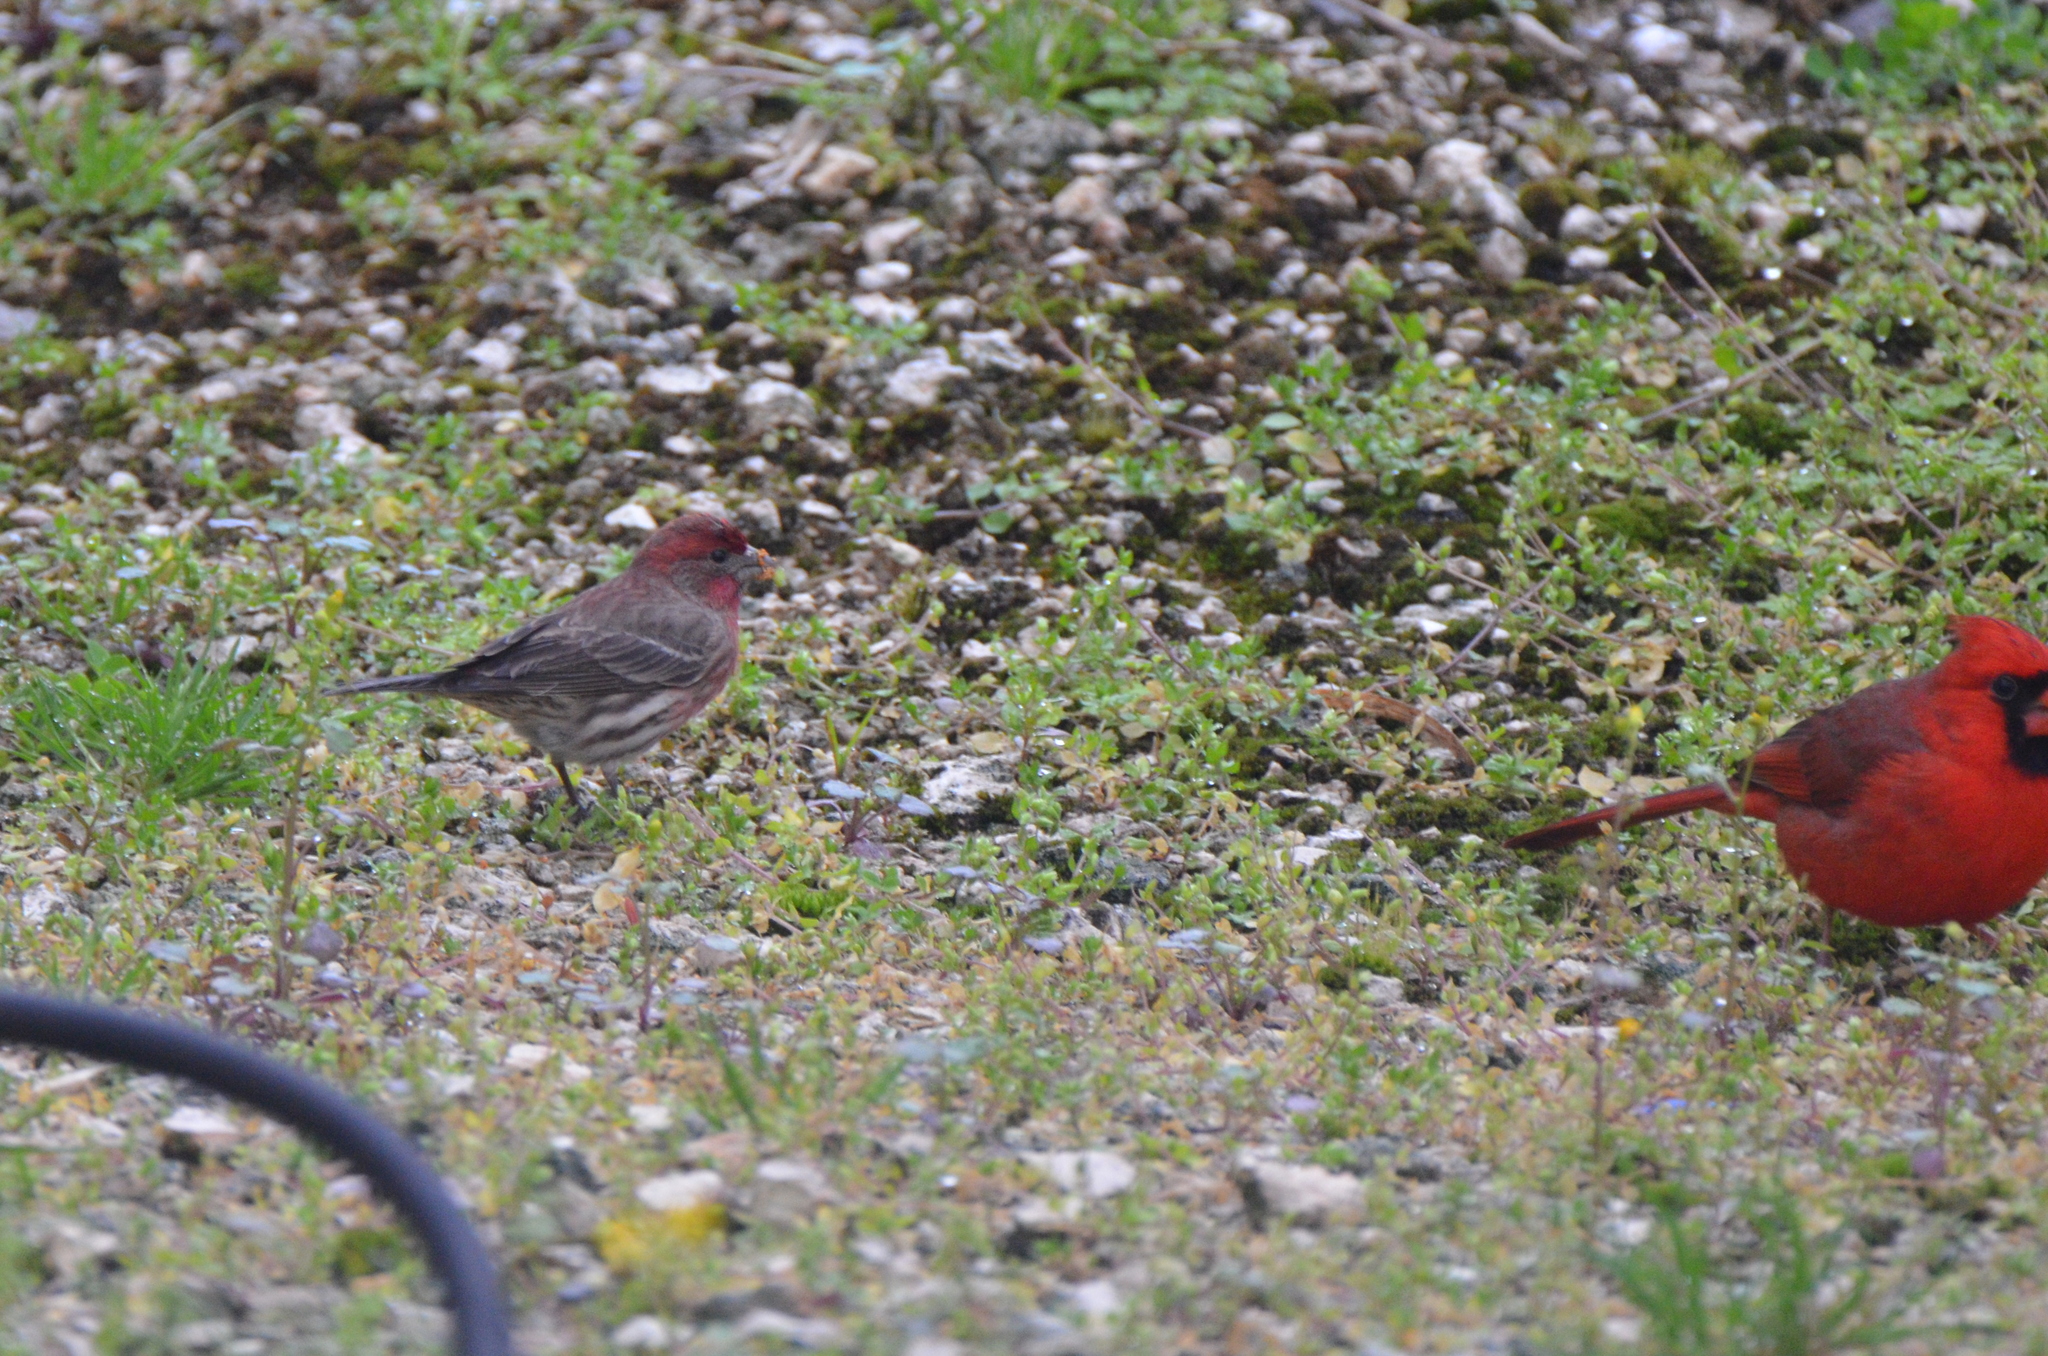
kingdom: Animalia
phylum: Chordata
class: Aves
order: Passeriformes
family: Fringillidae
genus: Haemorhous
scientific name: Haemorhous mexicanus
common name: House finch
